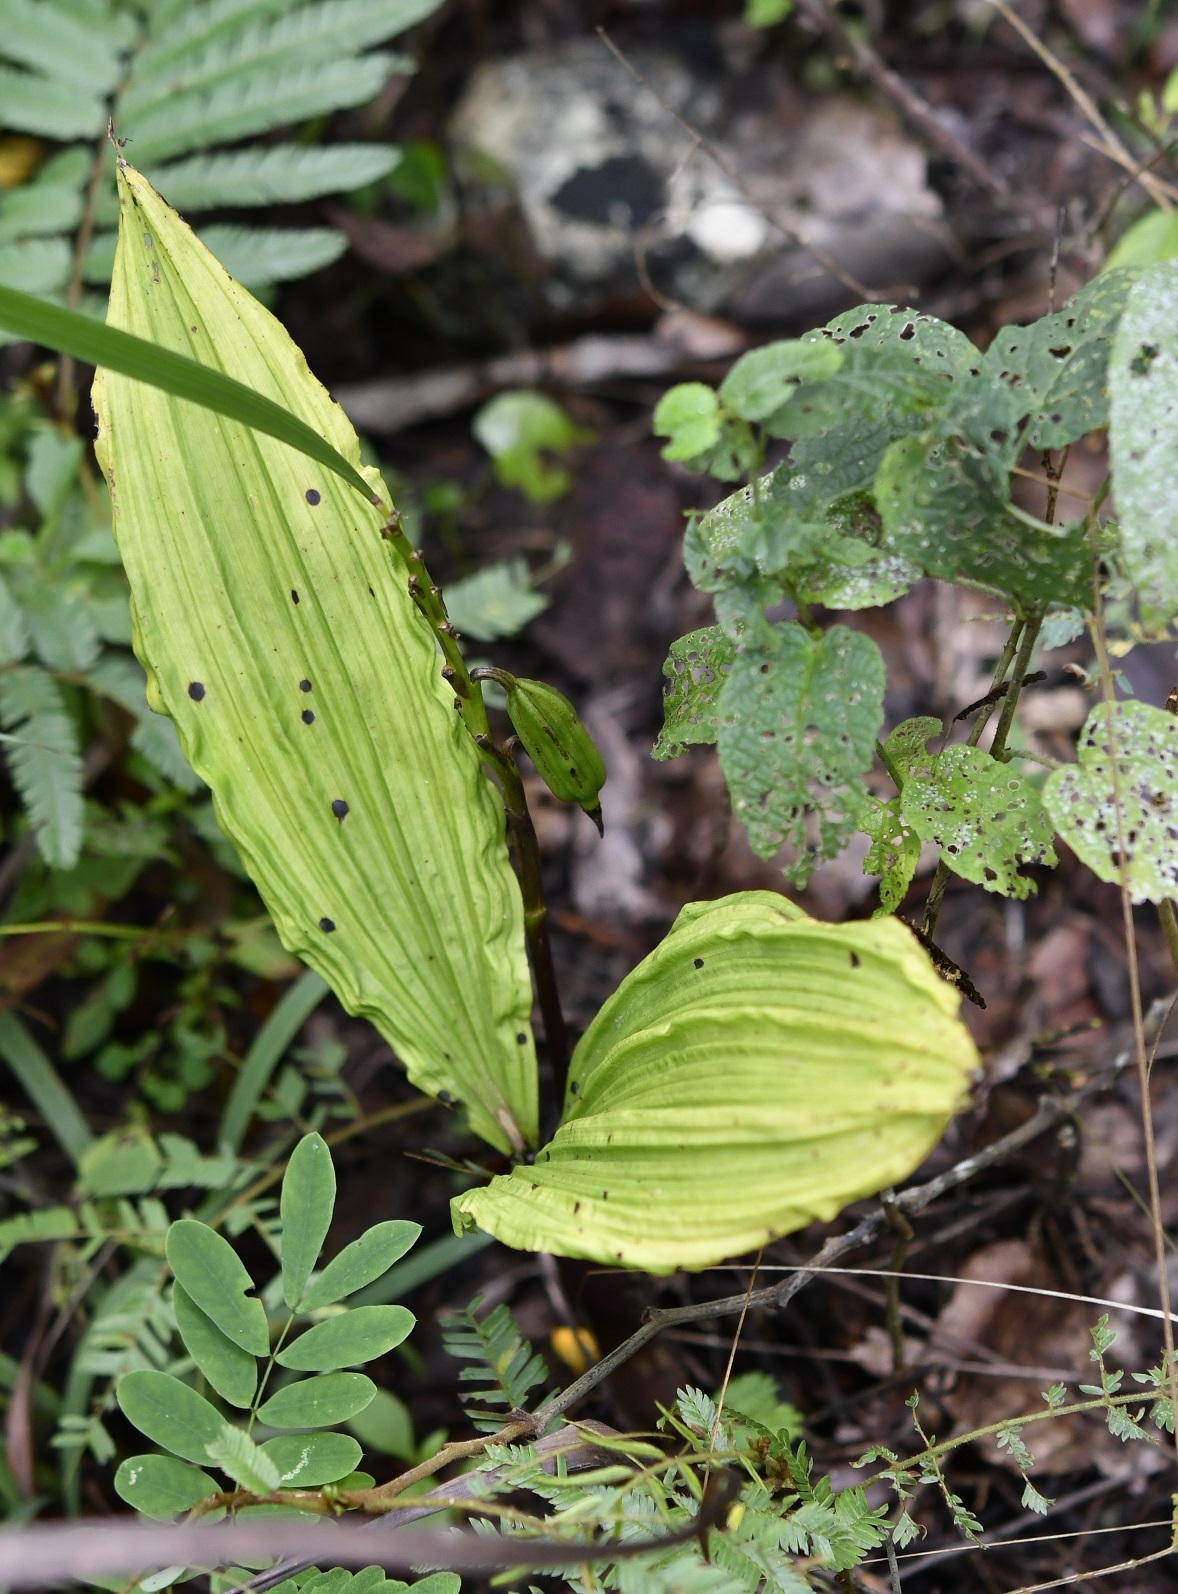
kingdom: Plantae
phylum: Tracheophyta
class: Liliopsida
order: Asparagales
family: Orchidaceae
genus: Govenia
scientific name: Govenia alba
